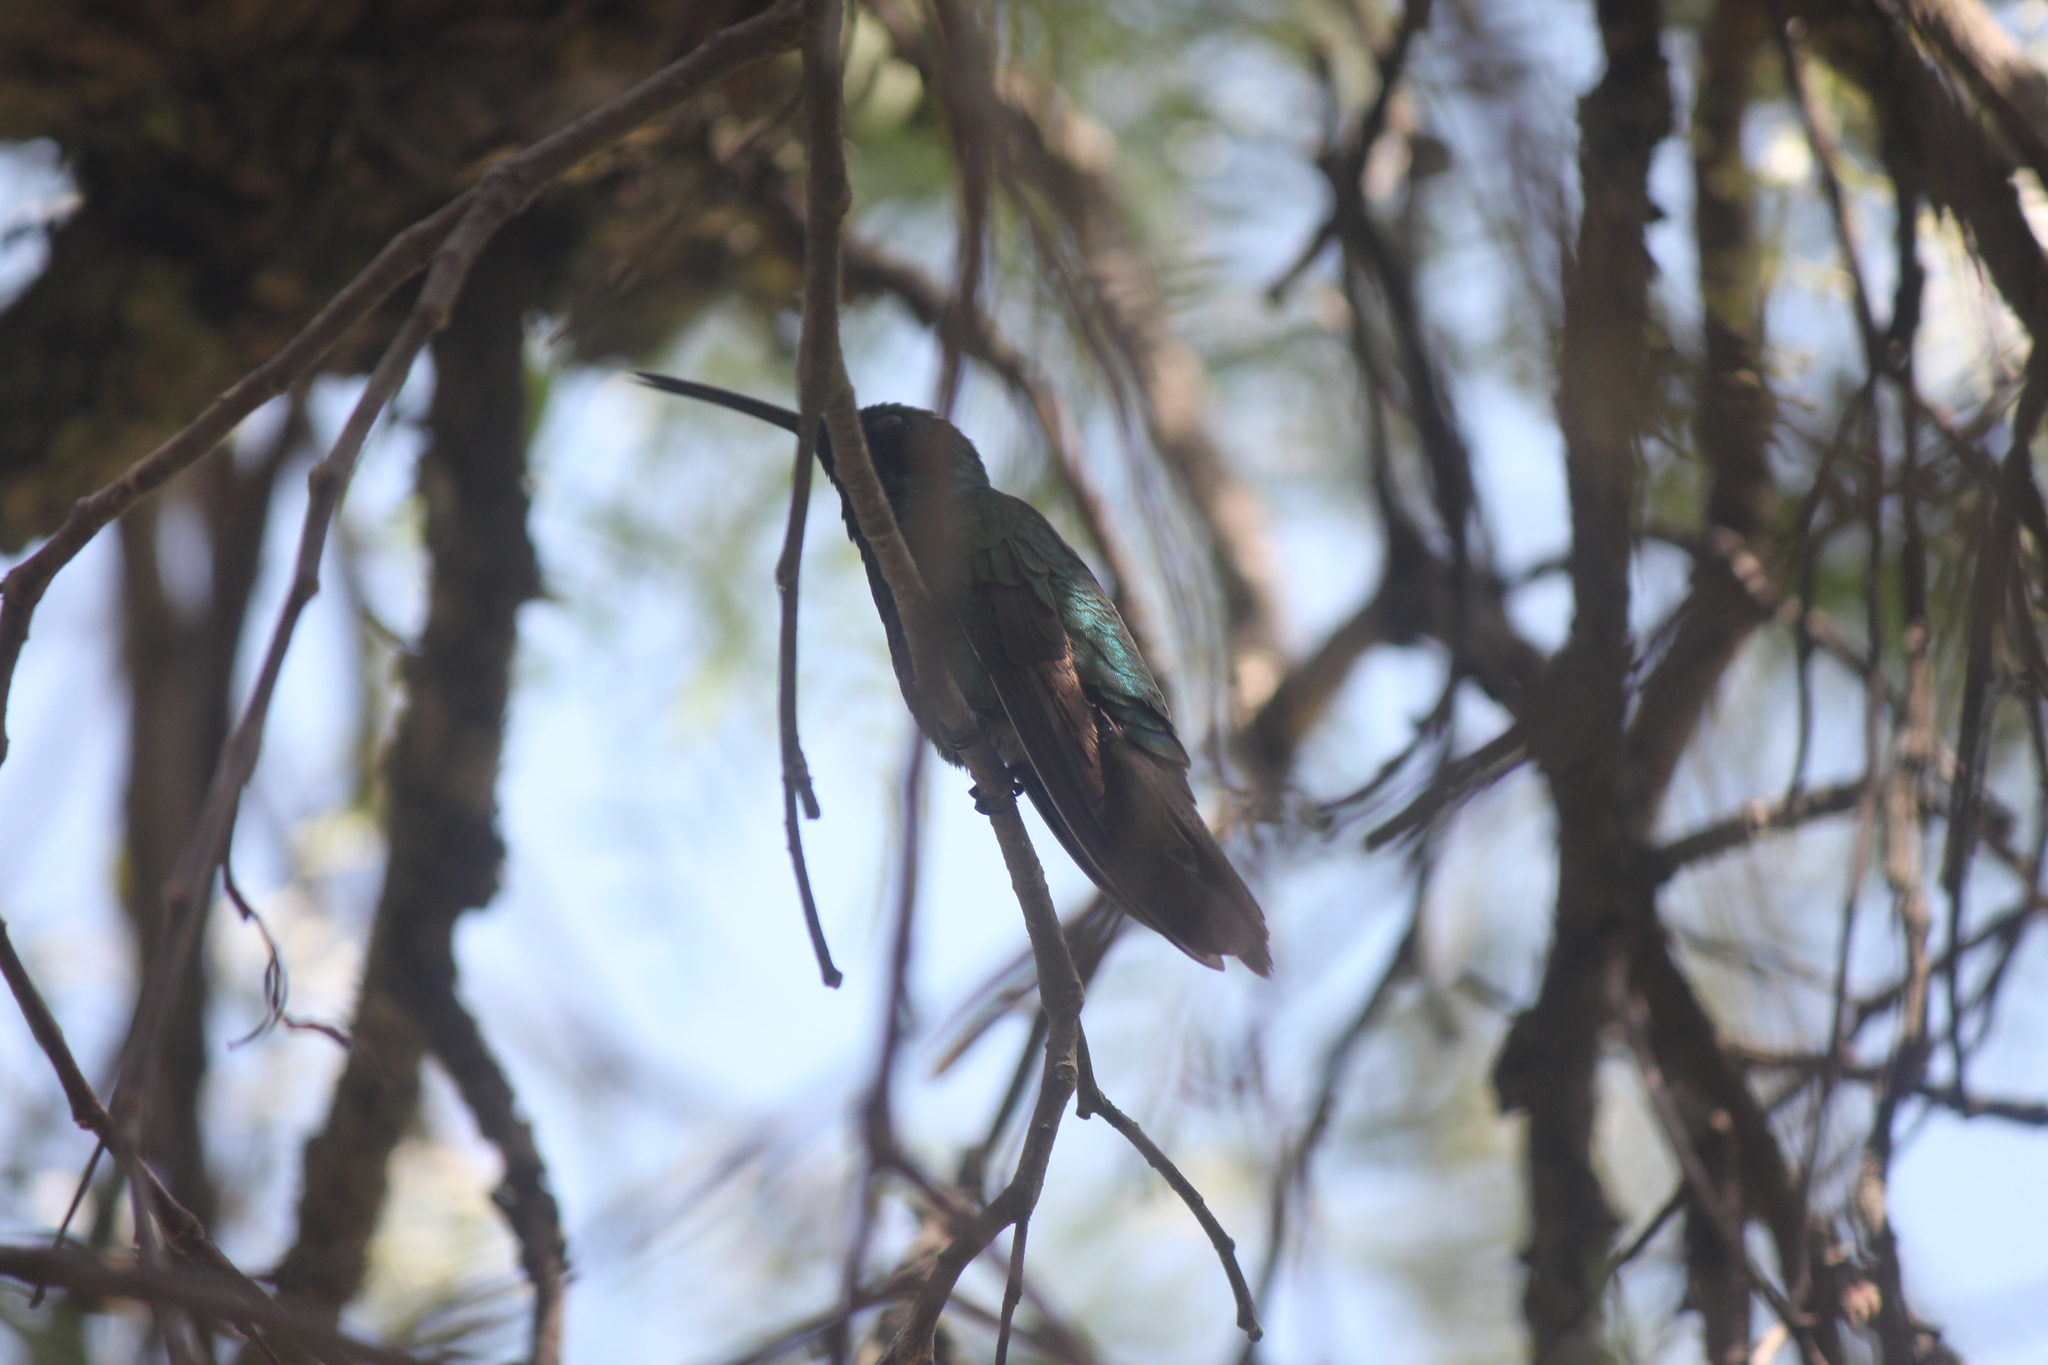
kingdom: Animalia
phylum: Chordata
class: Aves
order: Apodiformes
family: Trochilidae
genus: Colibri
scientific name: Colibri coruscans
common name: Sparkling violetear
